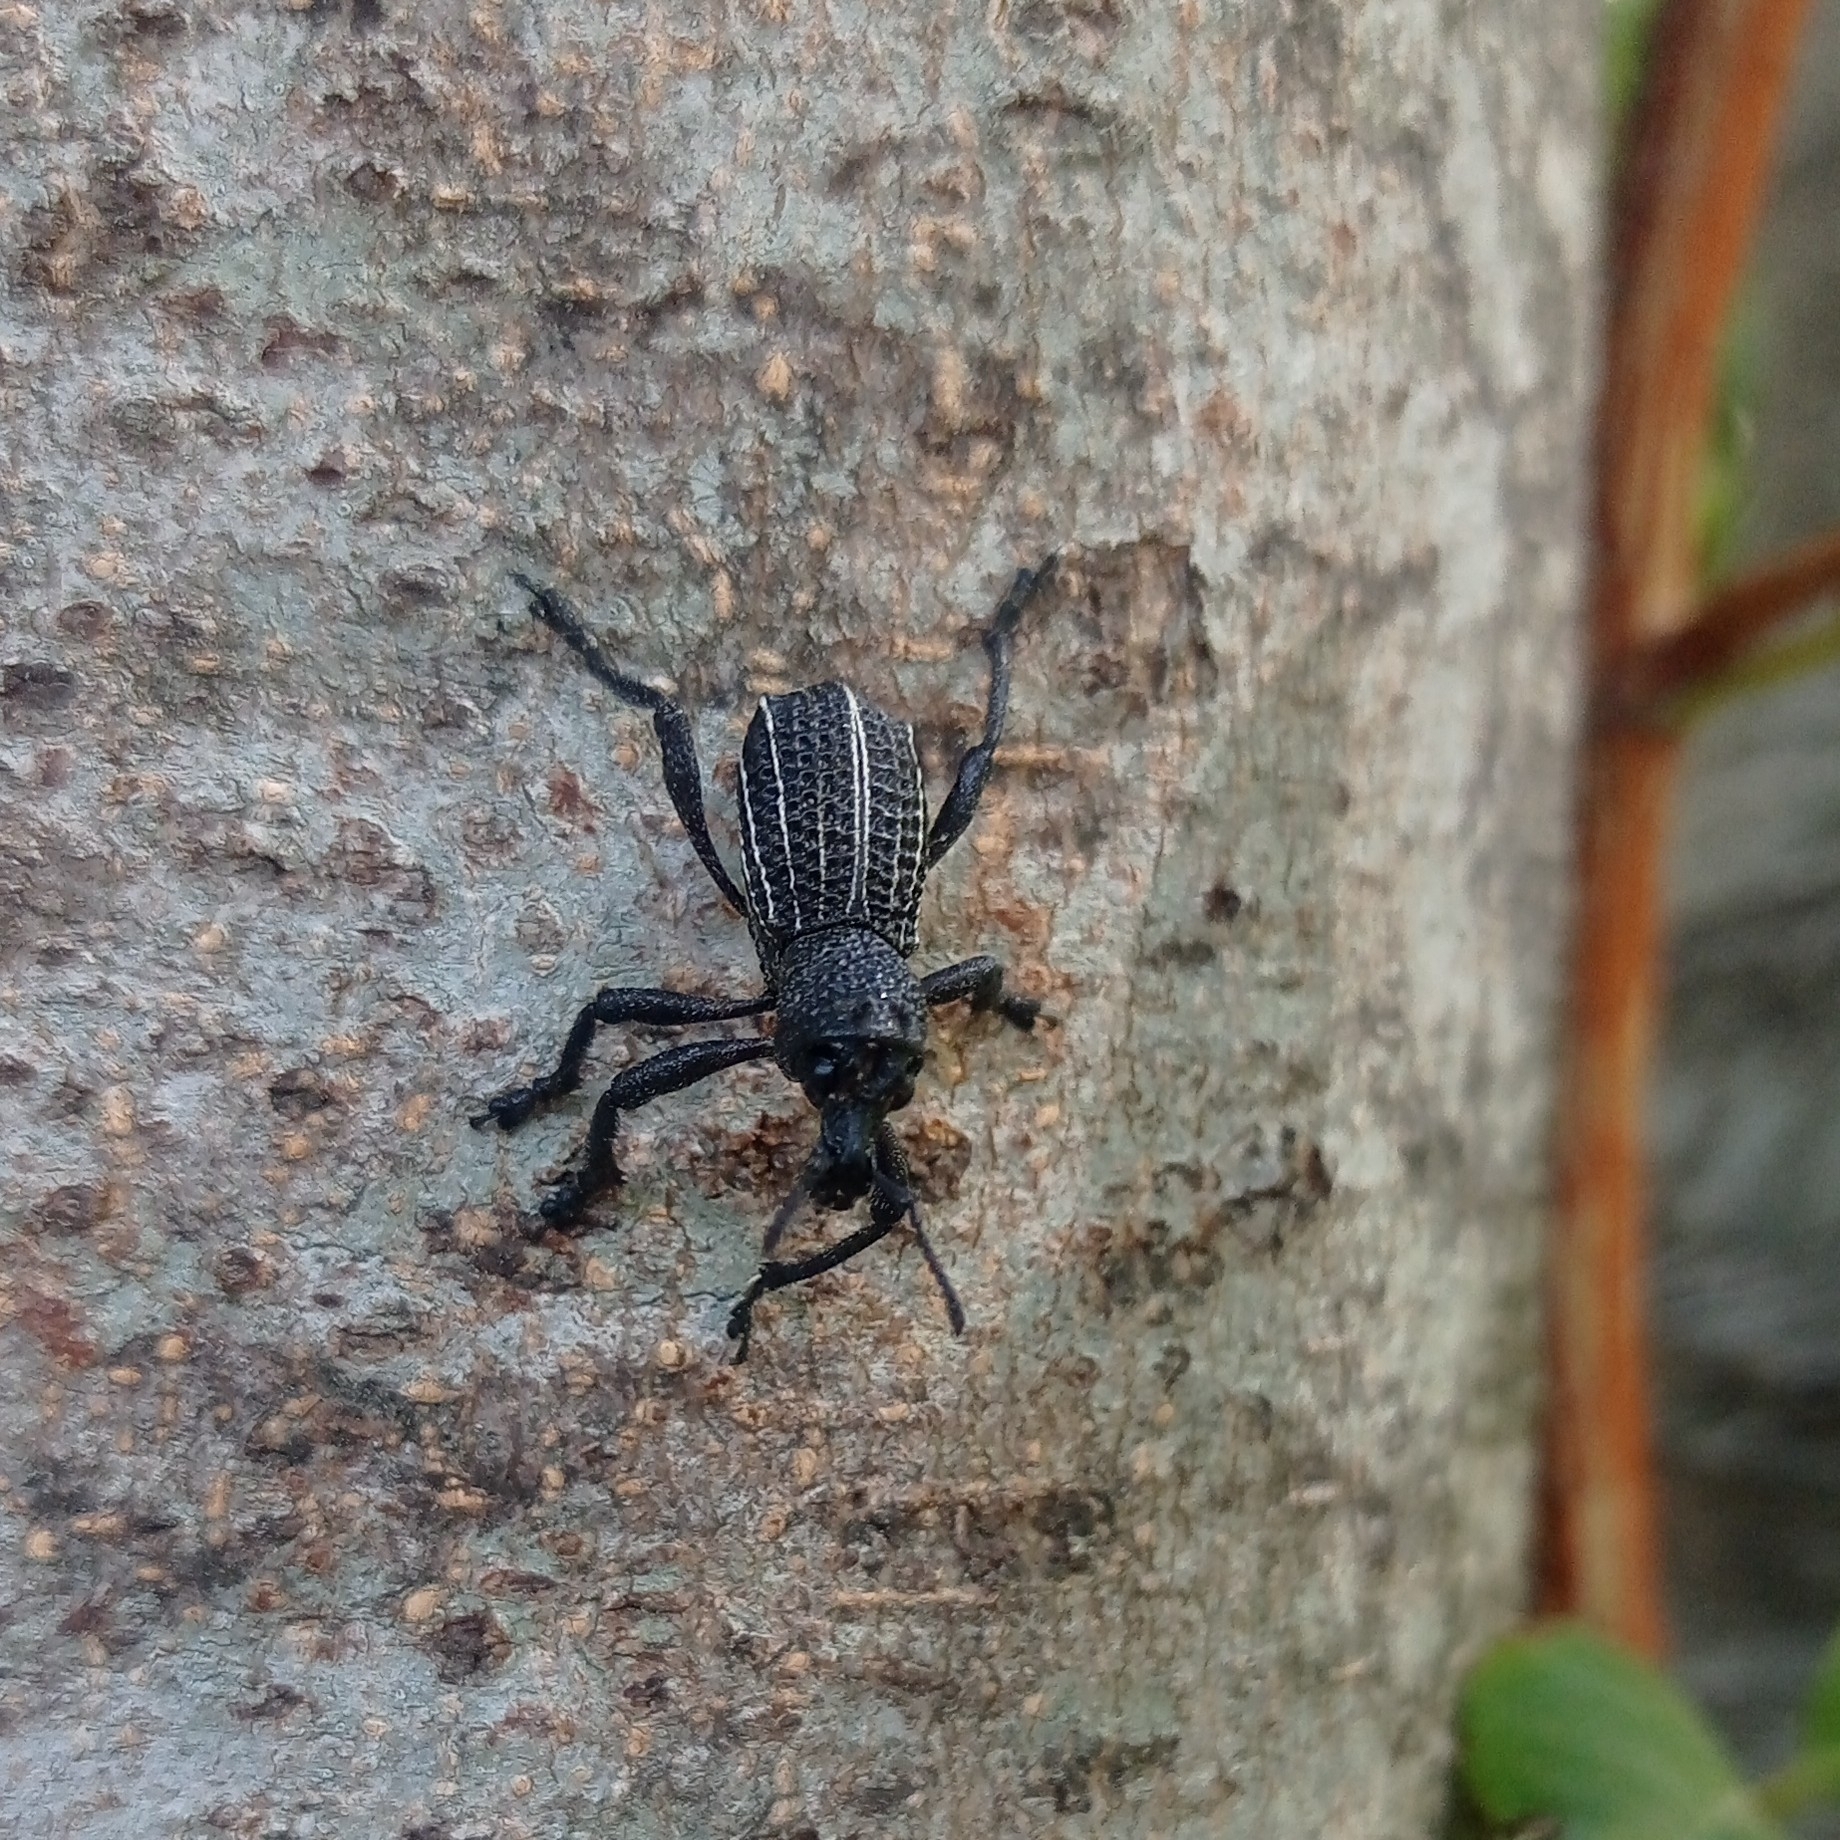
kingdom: Animalia
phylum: Arthropoda
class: Insecta
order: Coleoptera
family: Curculionidae
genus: Aegorhinus
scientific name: Aegorhinus
